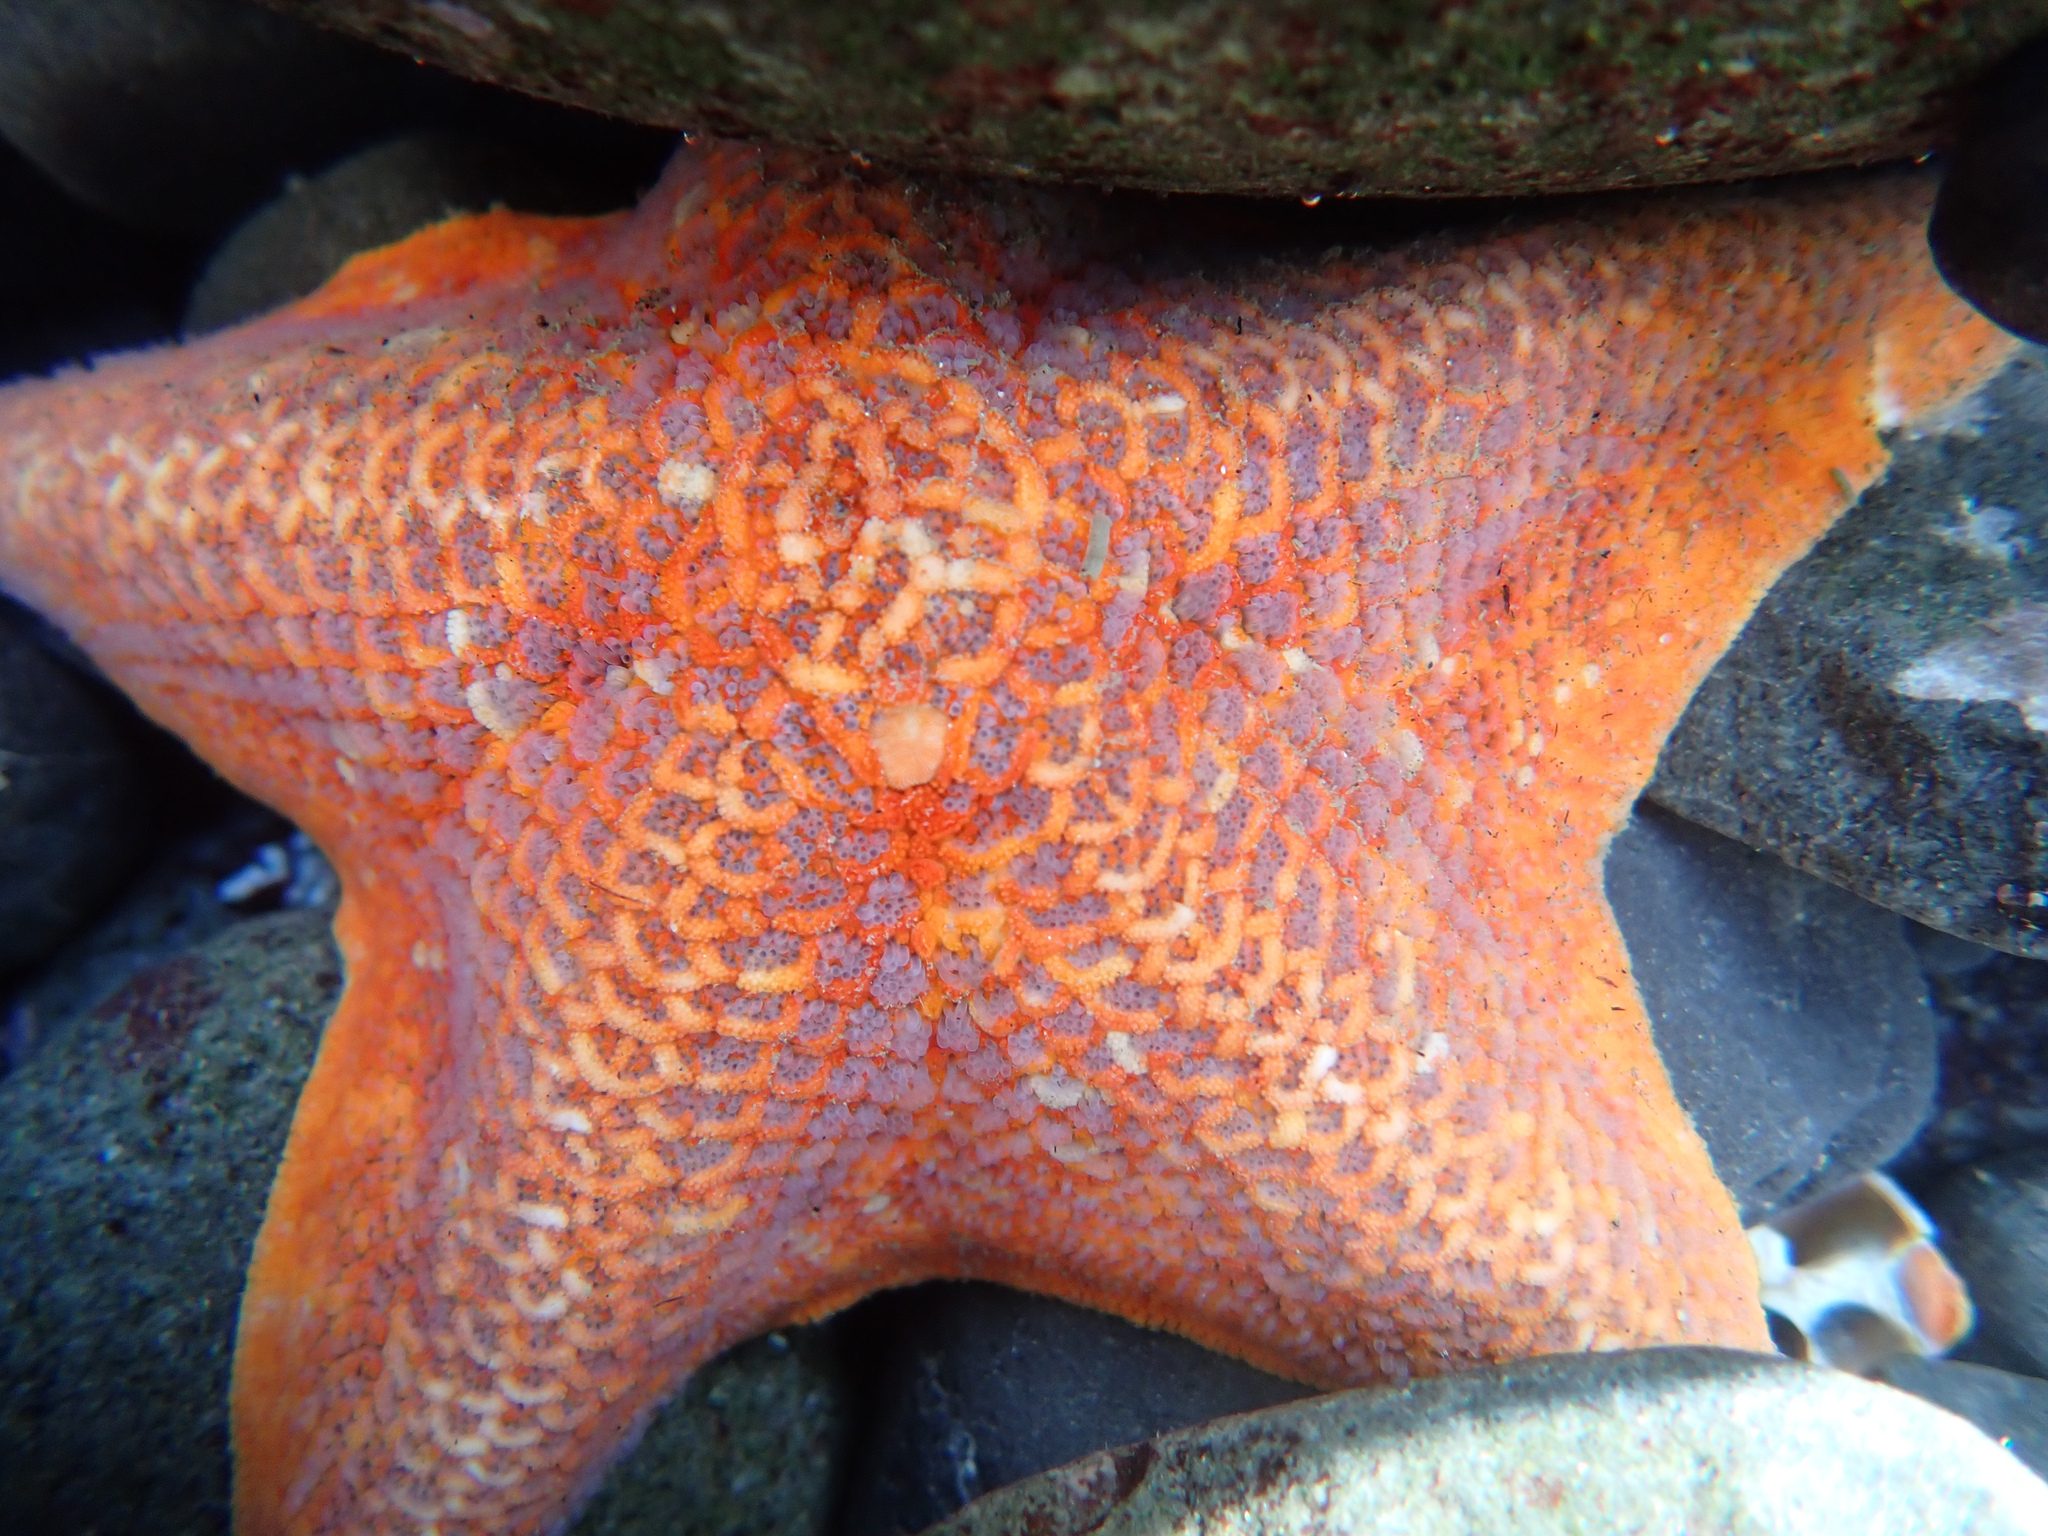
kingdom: Animalia
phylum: Echinodermata
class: Asteroidea
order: Valvatida
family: Asterinidae
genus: Patiria
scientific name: Patiria miniata
